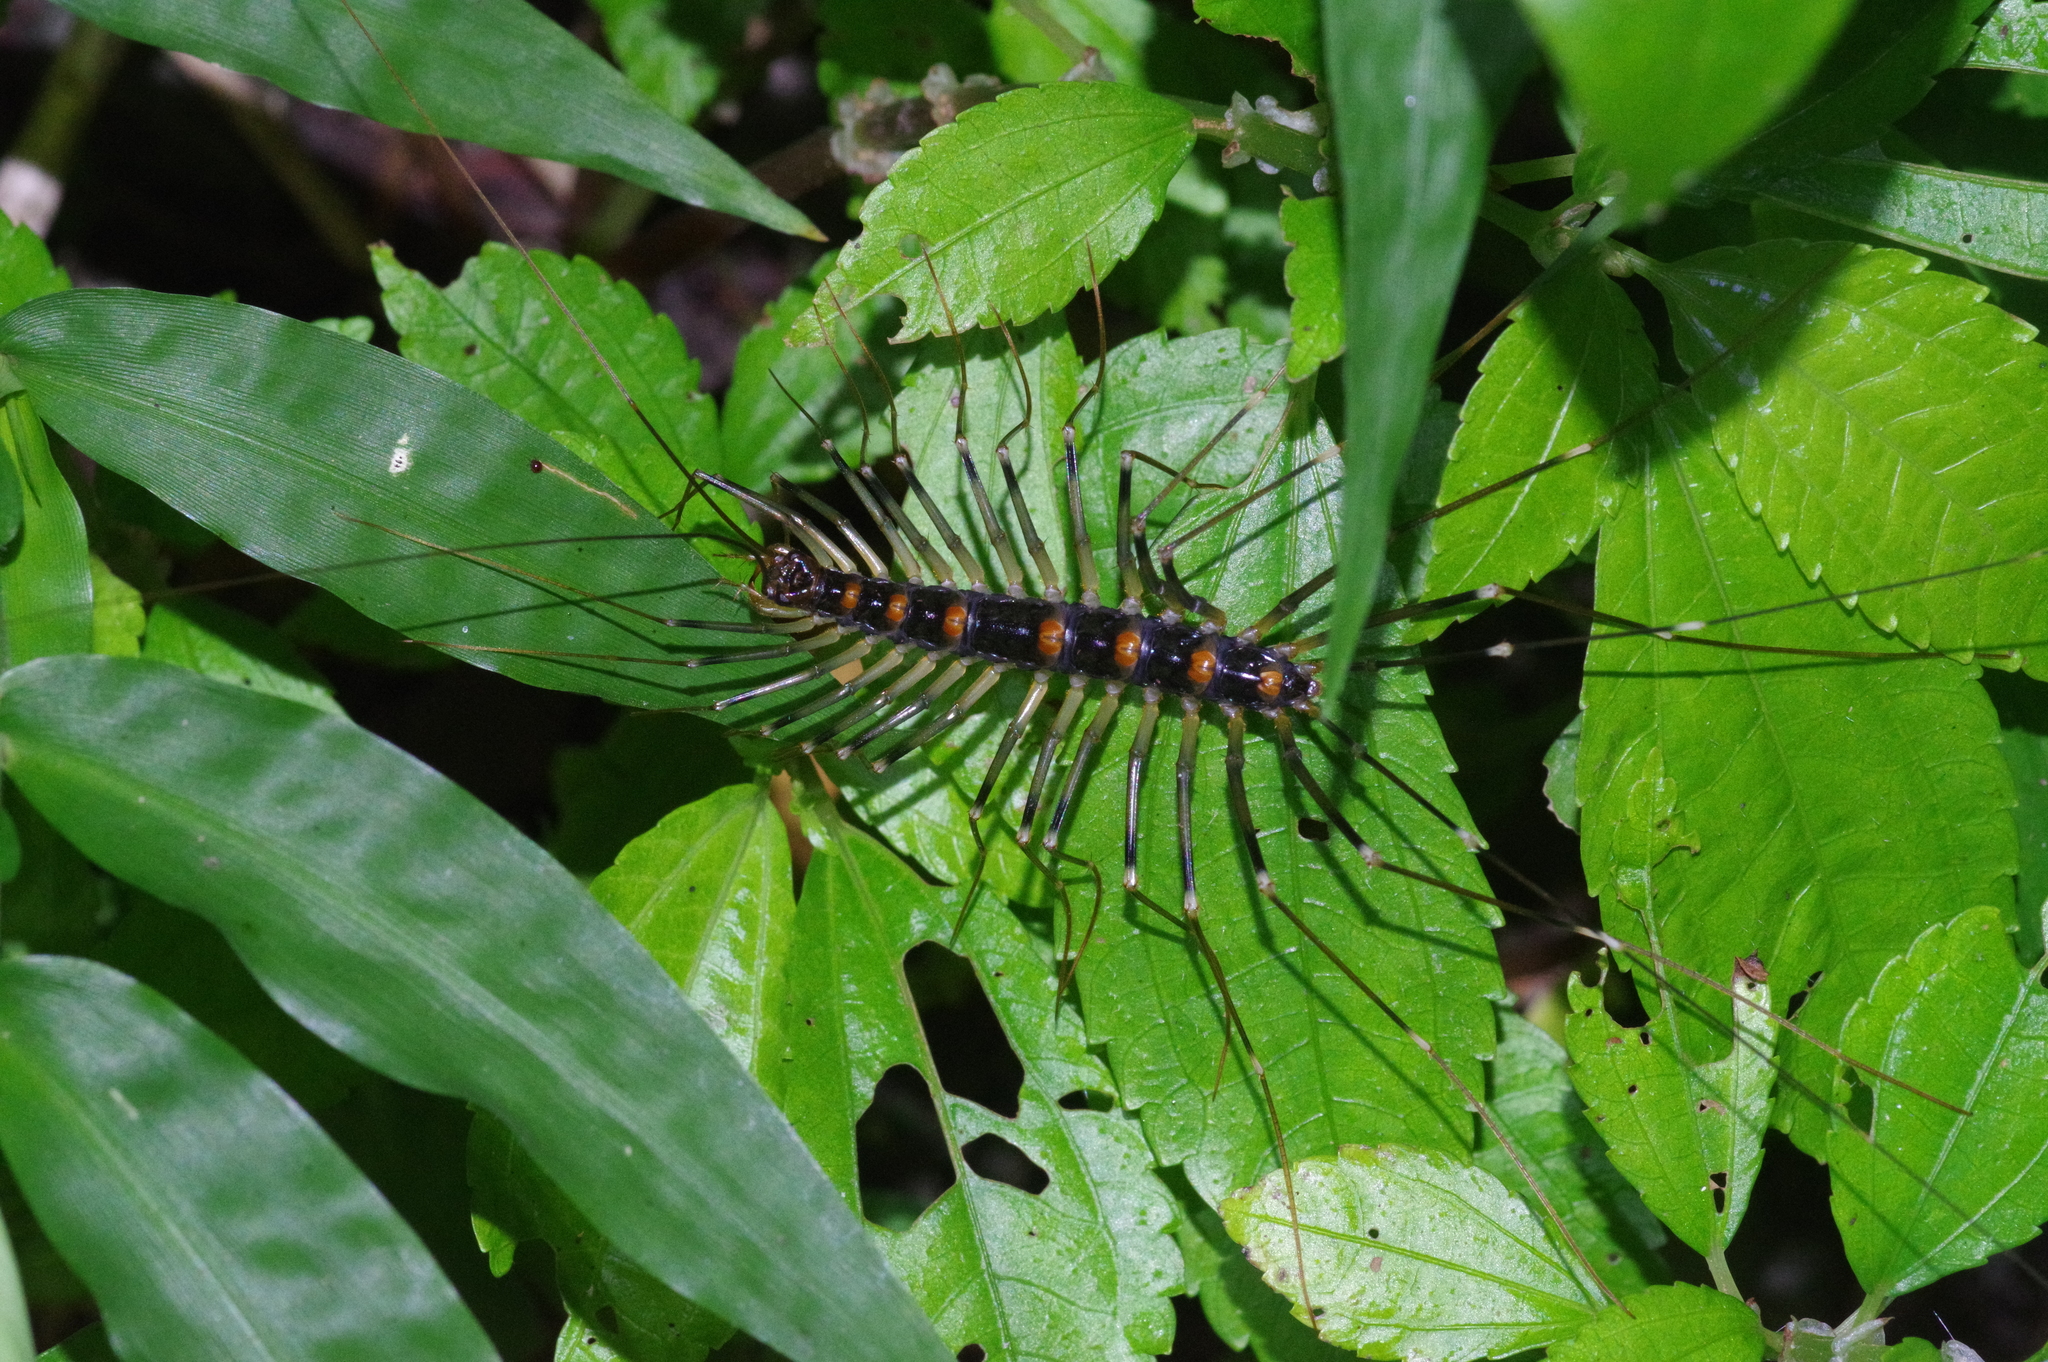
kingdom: Animalia
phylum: Arthropoda
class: Chilopoda
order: Scutigeromorpha
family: Scutigeridae
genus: Thereuopoda
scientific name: Thereuopoda clunifera
